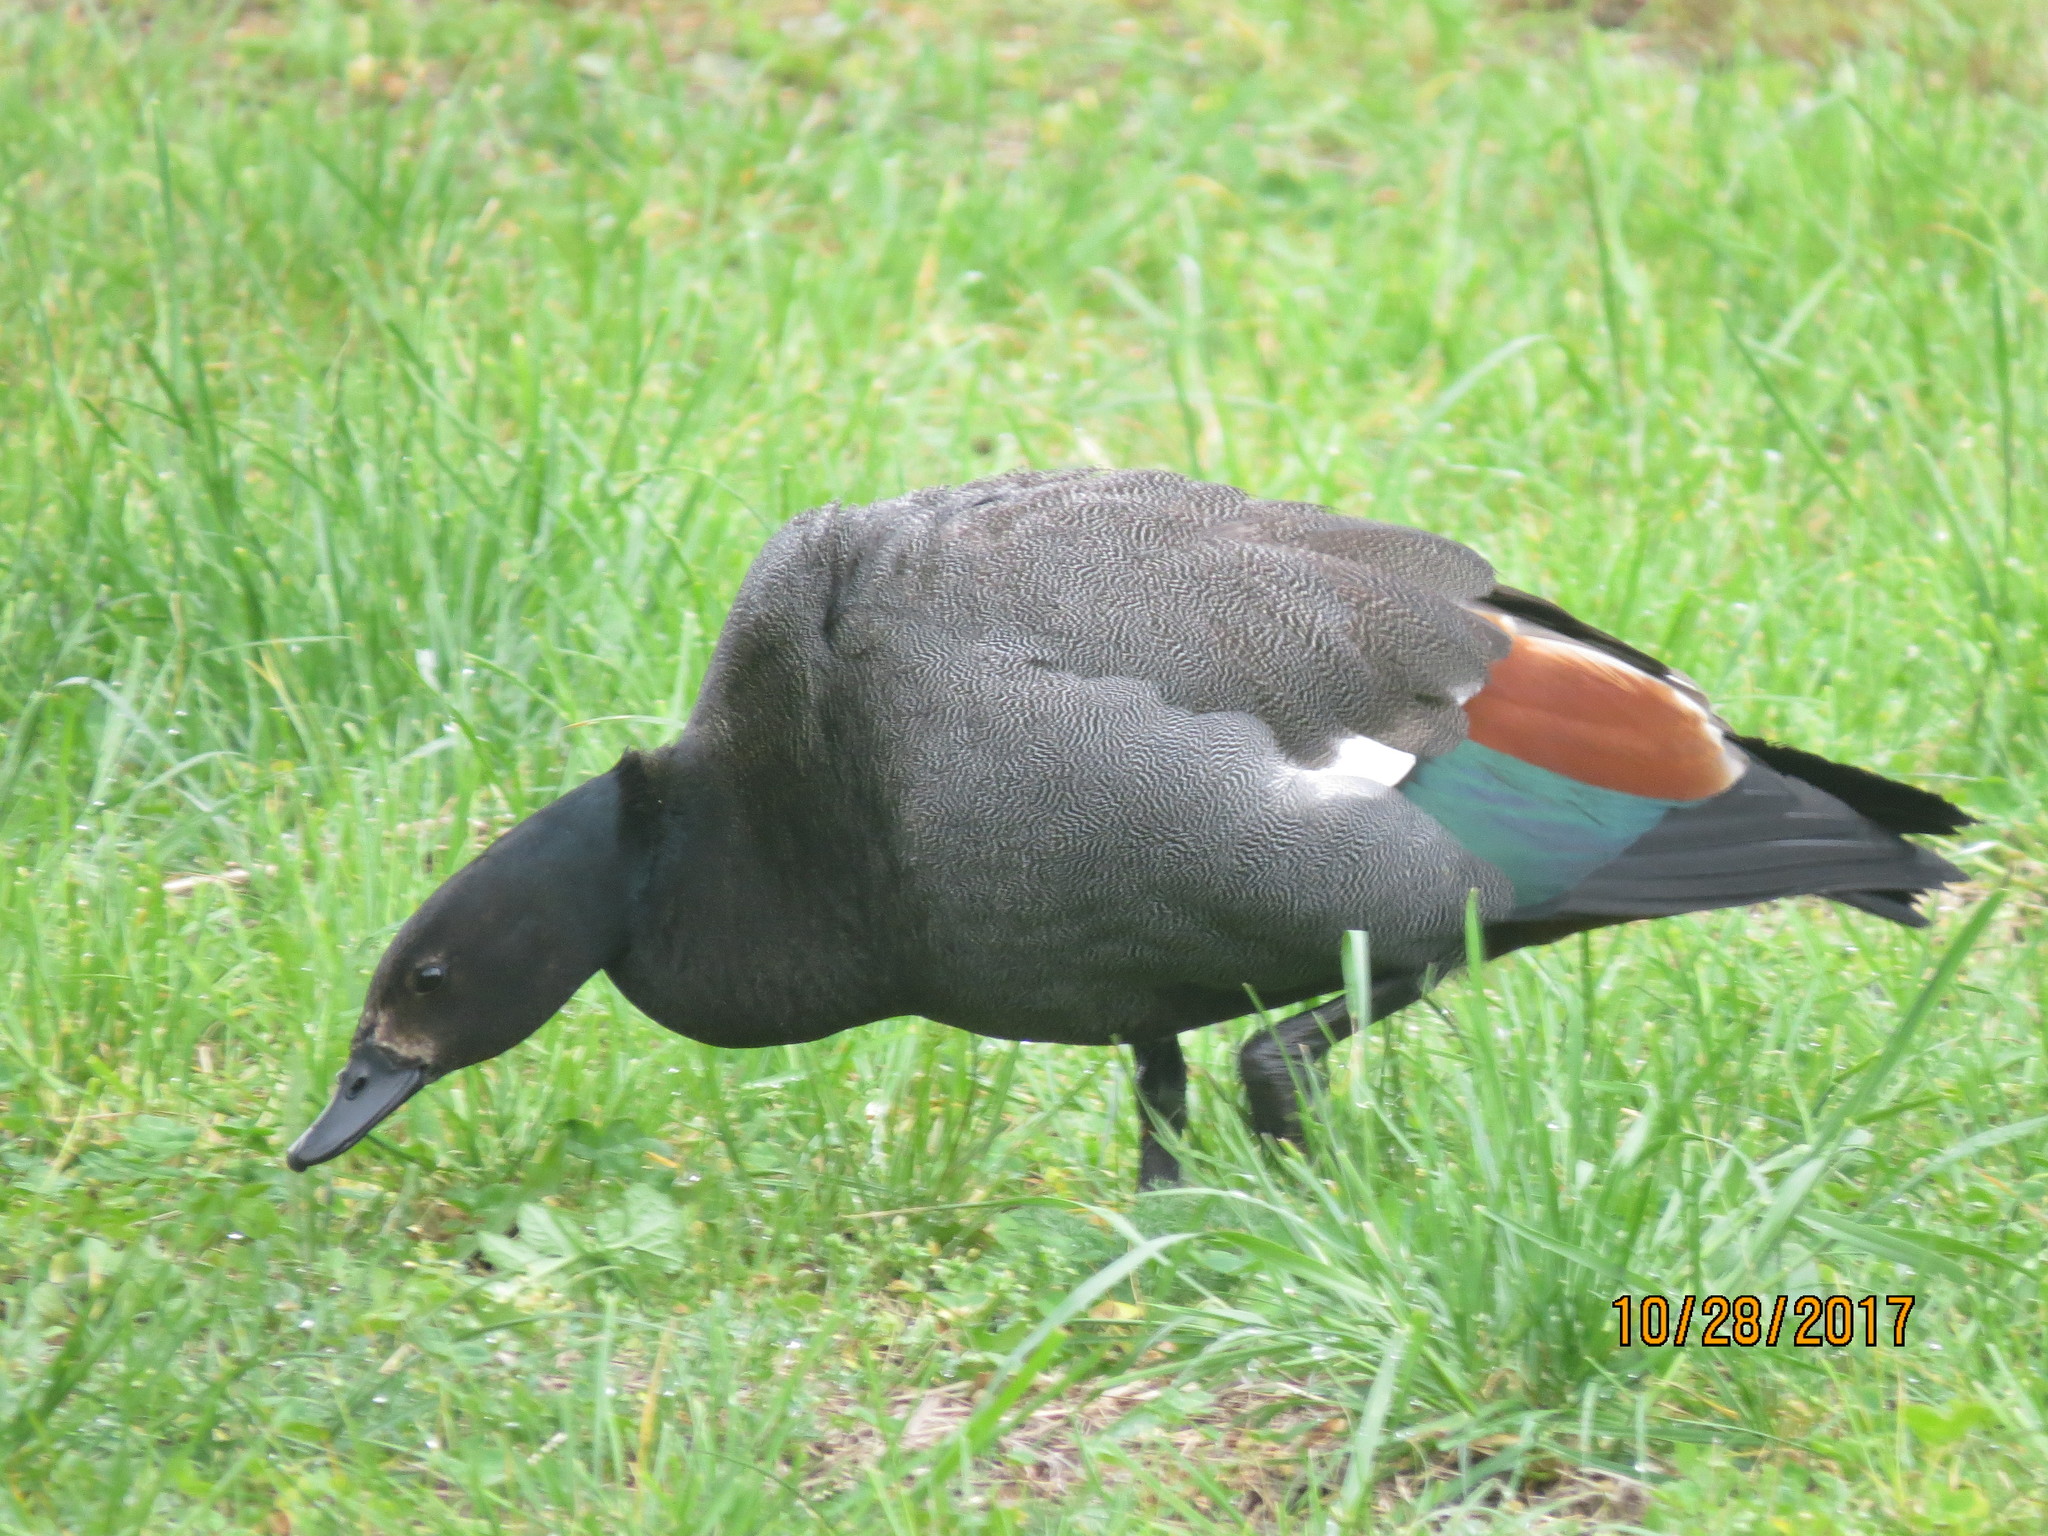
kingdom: Animalia
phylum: Chordata
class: Aves
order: Anseriformes
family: Anatidae
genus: Tadorna
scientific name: Tadorna variegata
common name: Paradise shelduck
